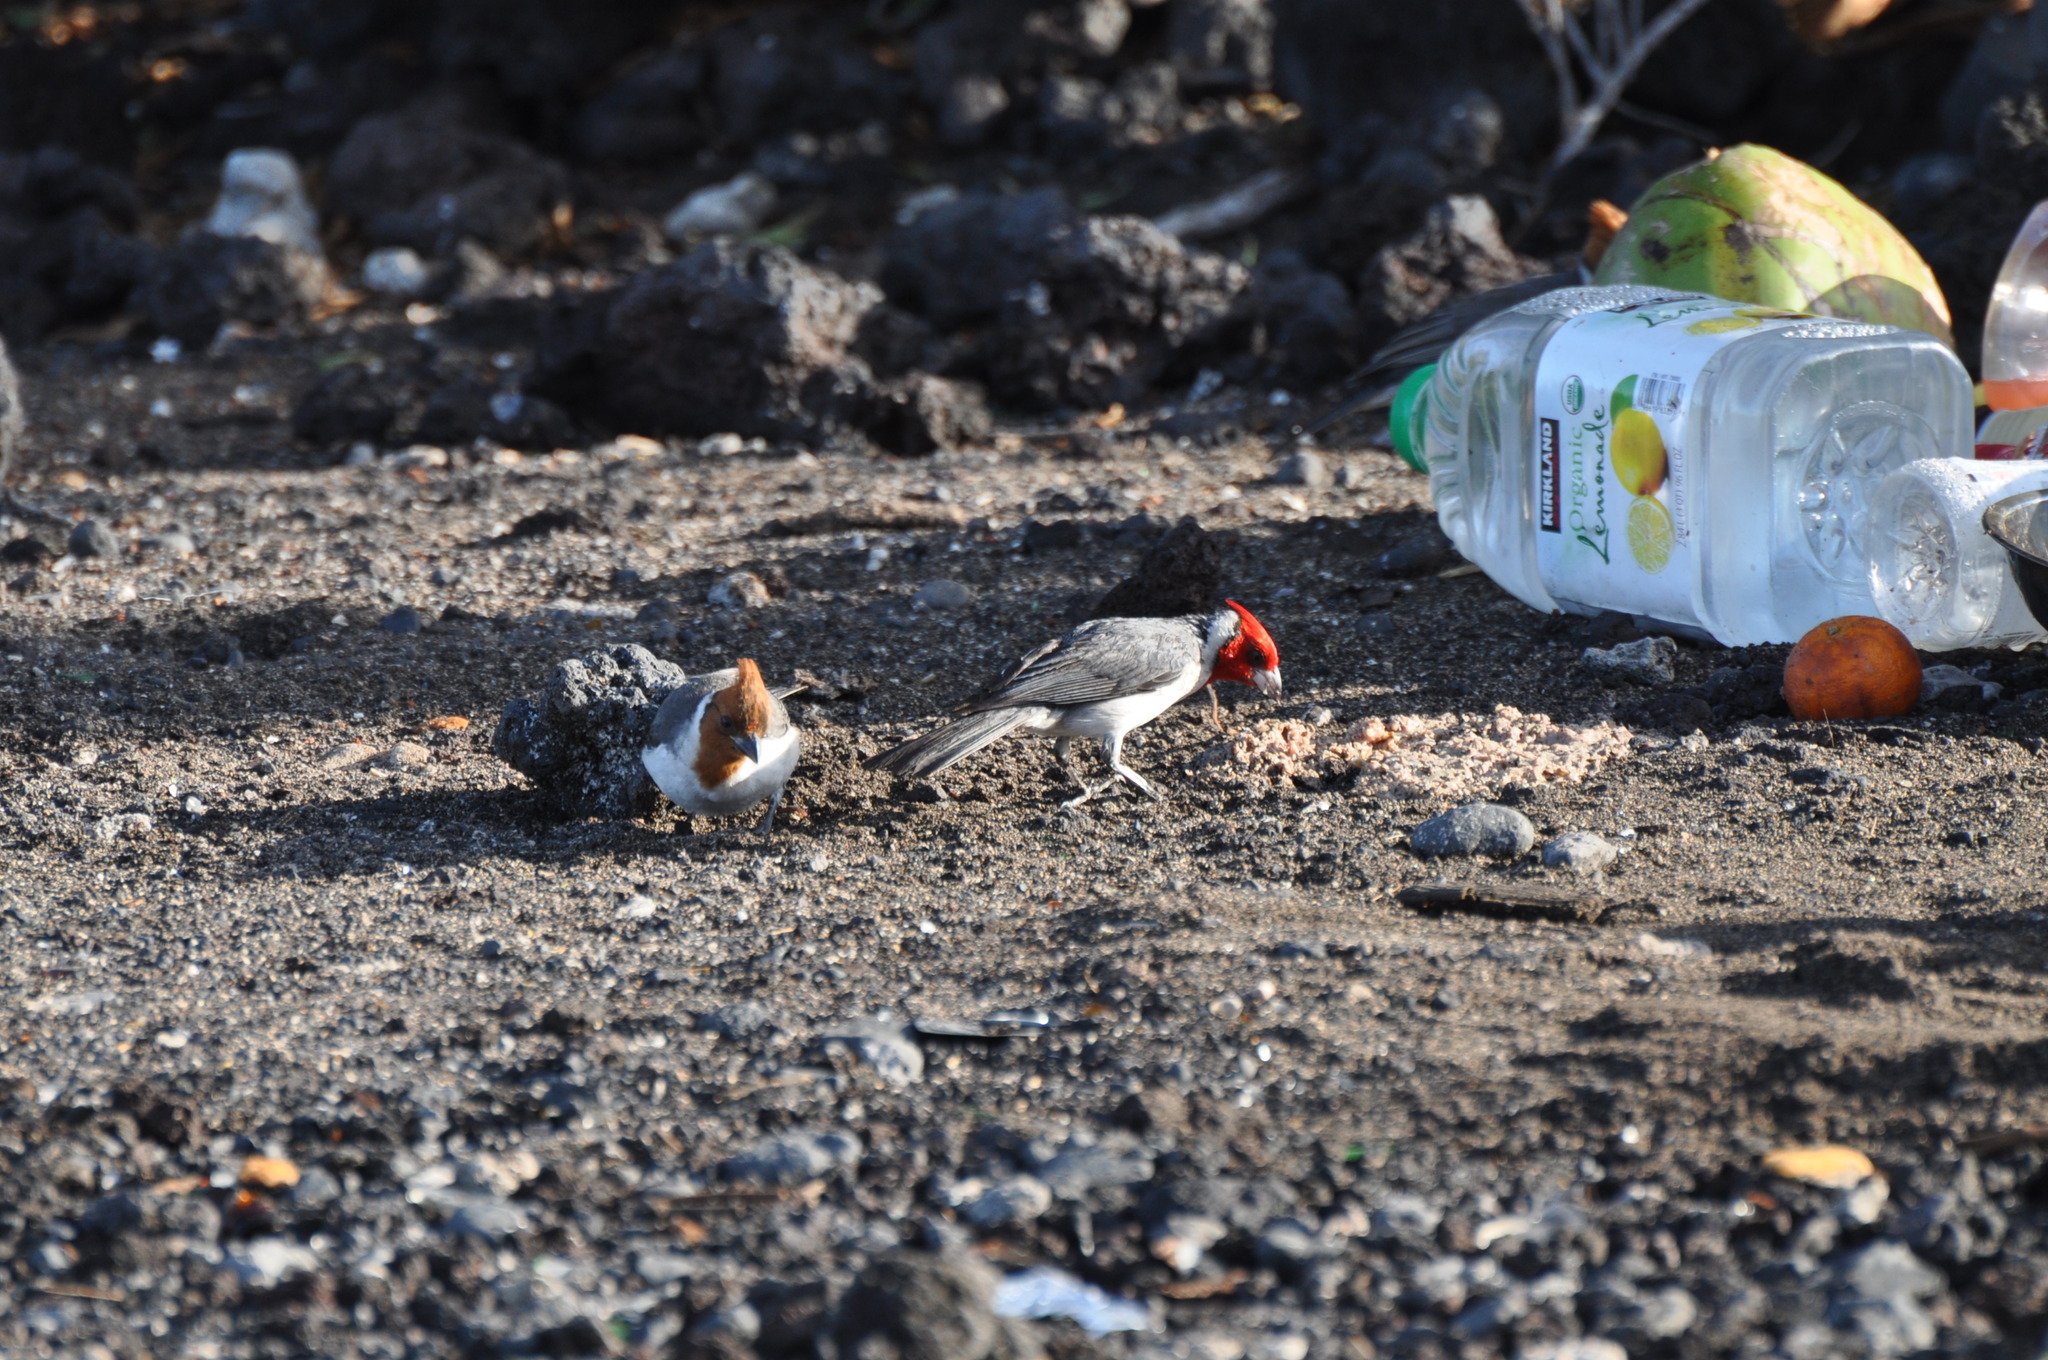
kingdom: Animalia
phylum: Chordata
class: Aves
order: Passeriformes
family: Thraupidae
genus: Paroaria
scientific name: Paroaria coronata
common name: Red-crested cardinal
